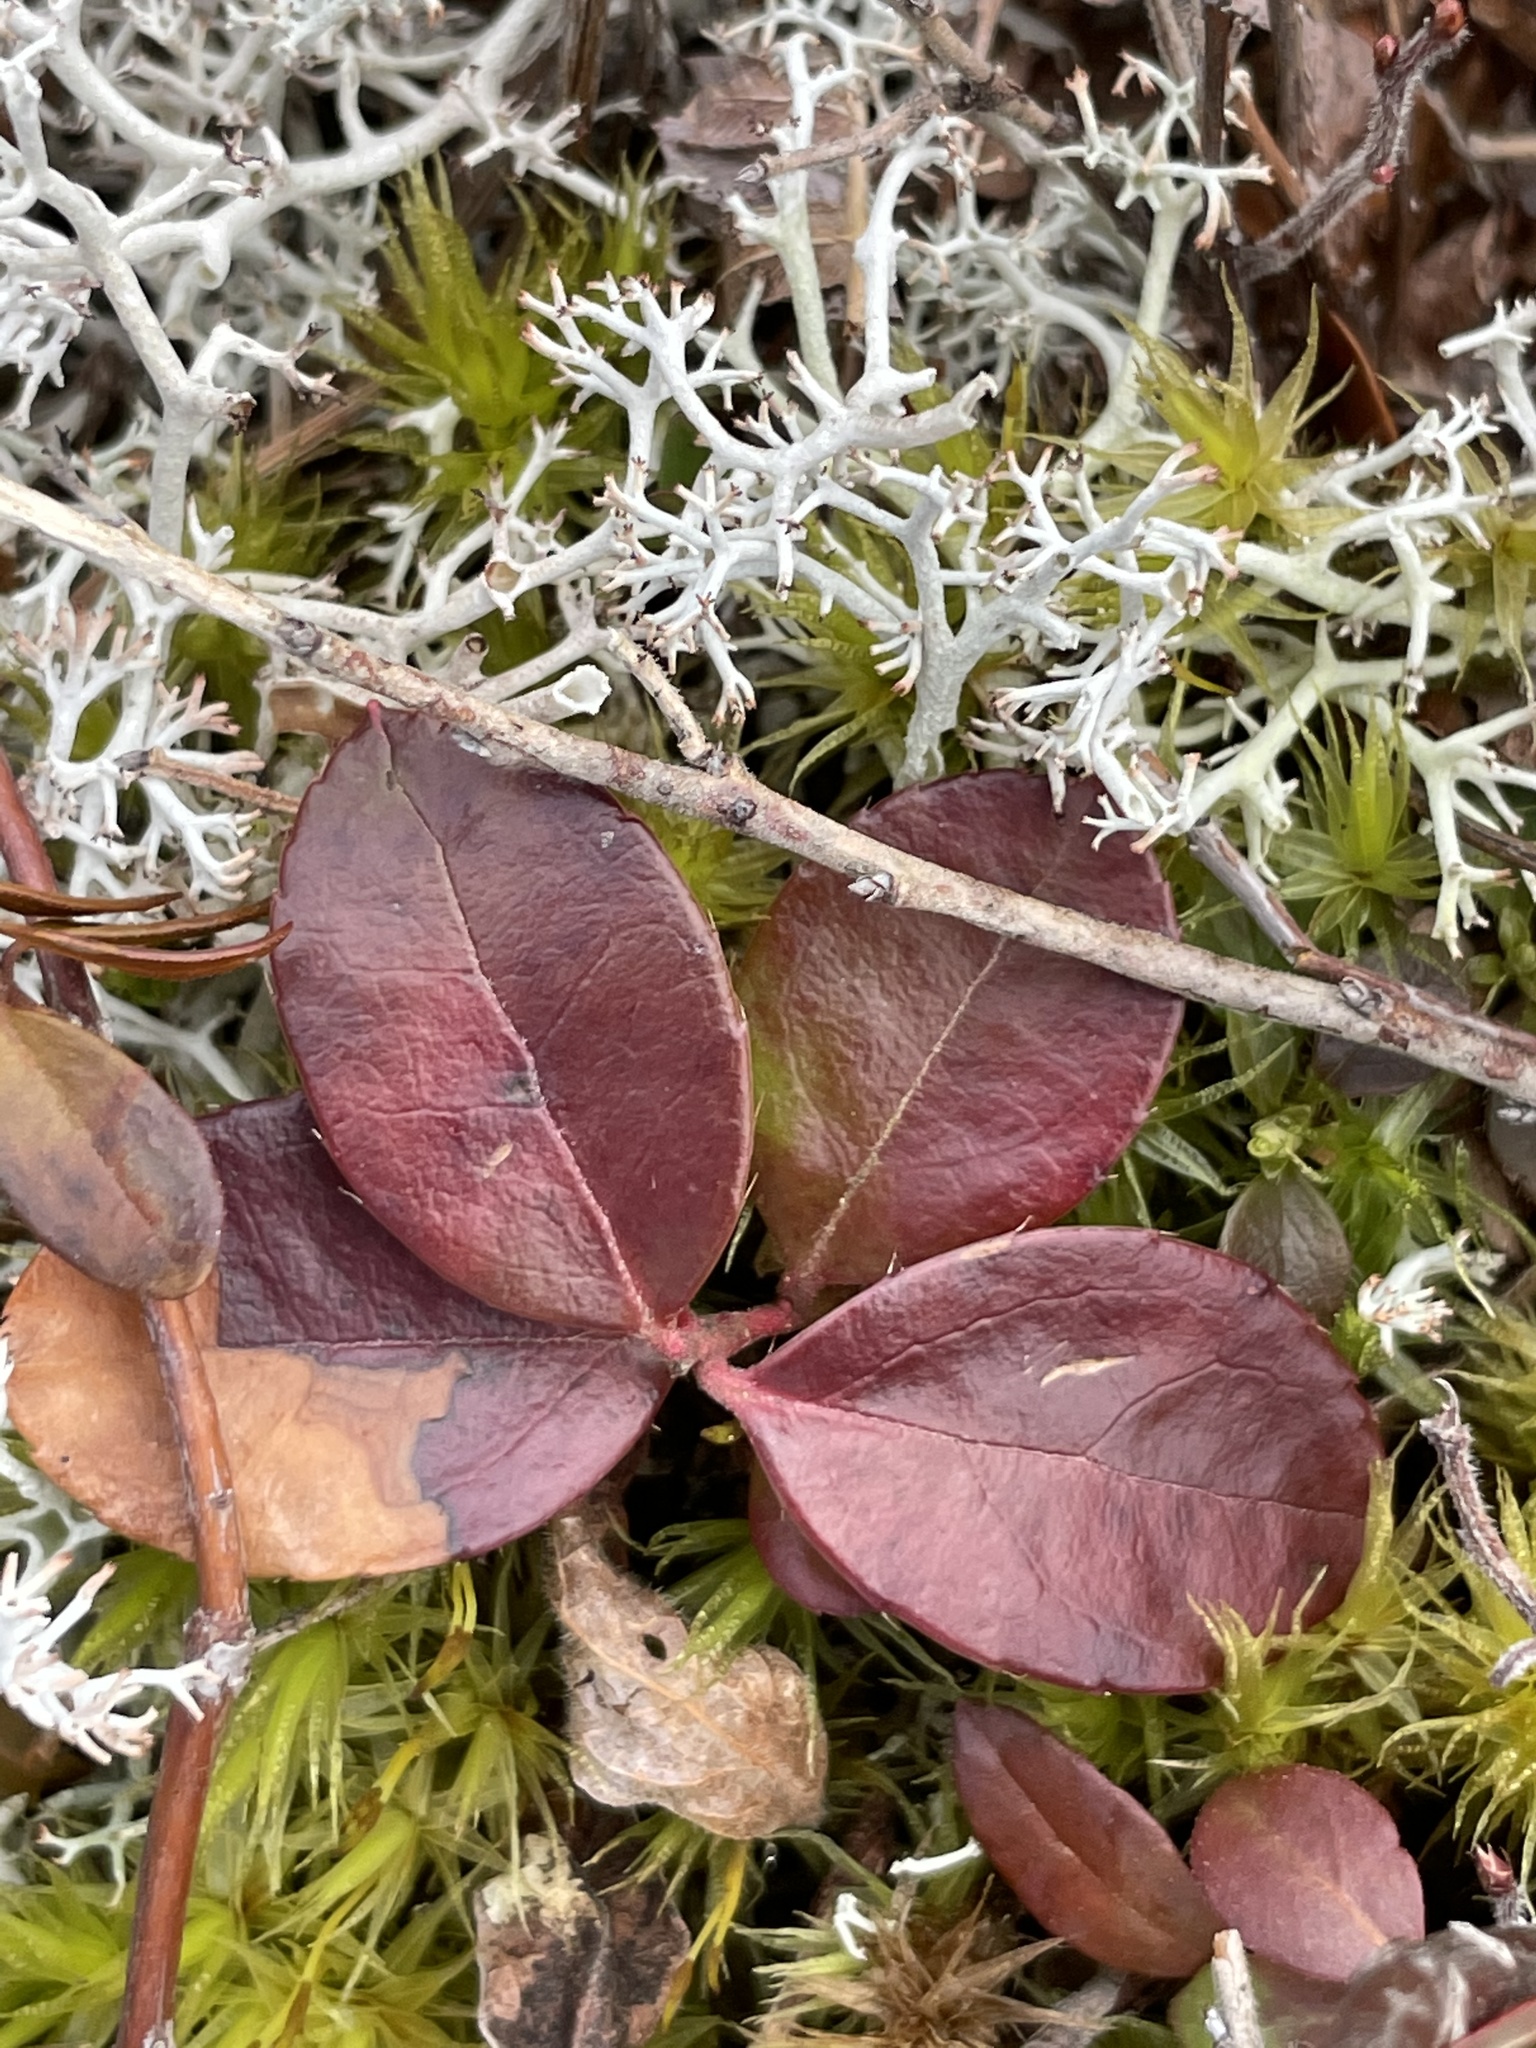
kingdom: Plantae
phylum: Tracheophyta
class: Magnoliopsida
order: Ericales
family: Ericaceae
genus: Gaultheria
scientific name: Gaultheria procumbens
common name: Checkerberry
